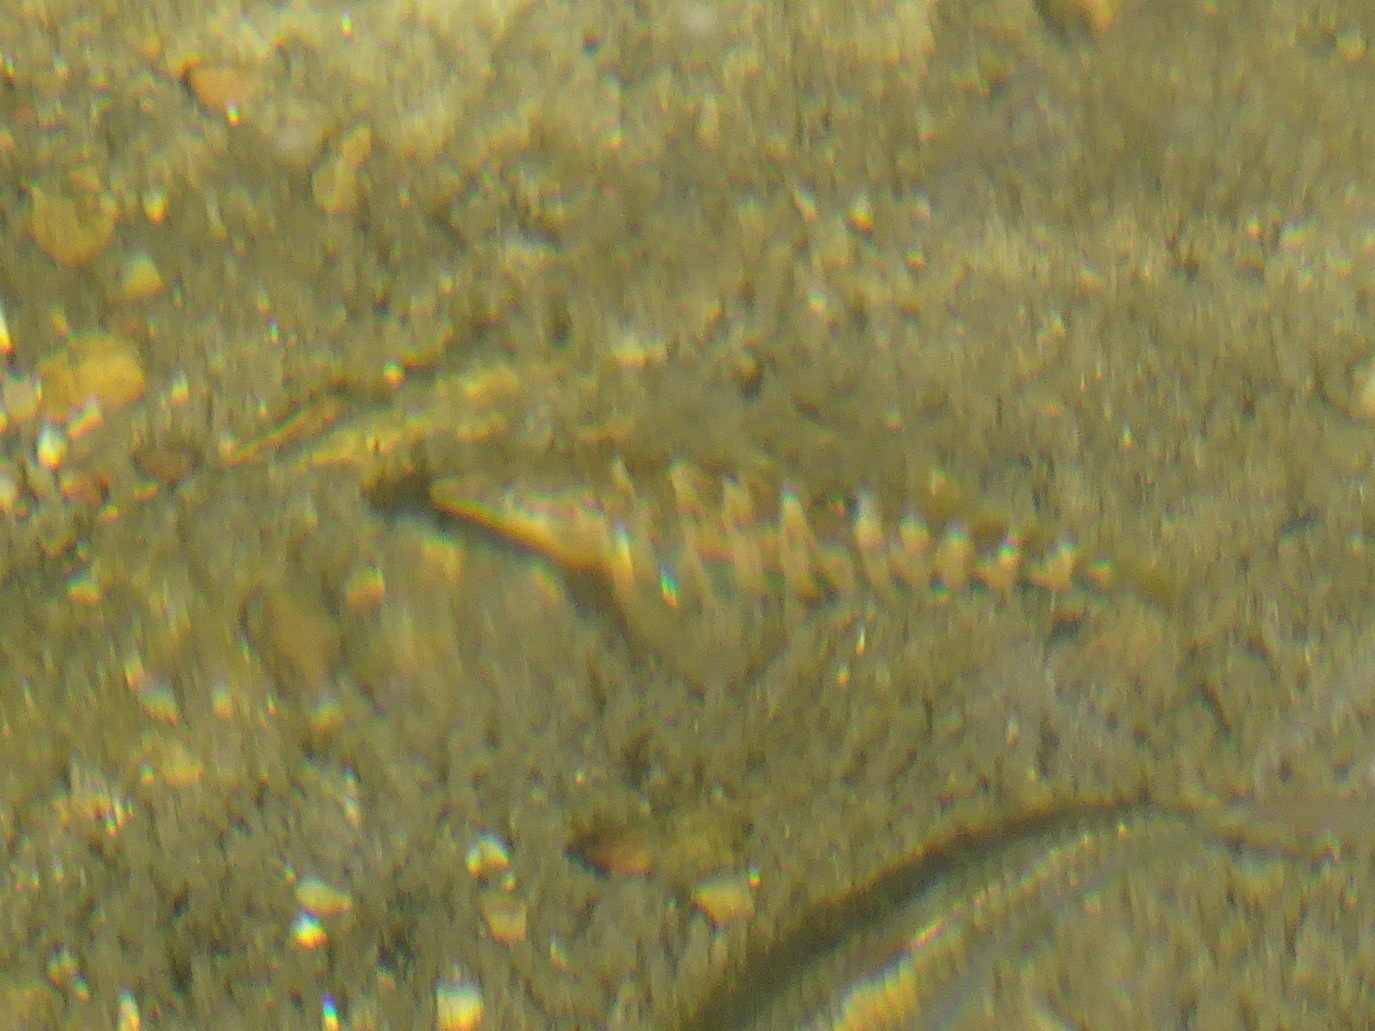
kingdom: Animalia
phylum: Chordata
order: Perciformes
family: Percidae
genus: Etheostoma
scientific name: Etheostoma caeruleum
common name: Rainbow darter
